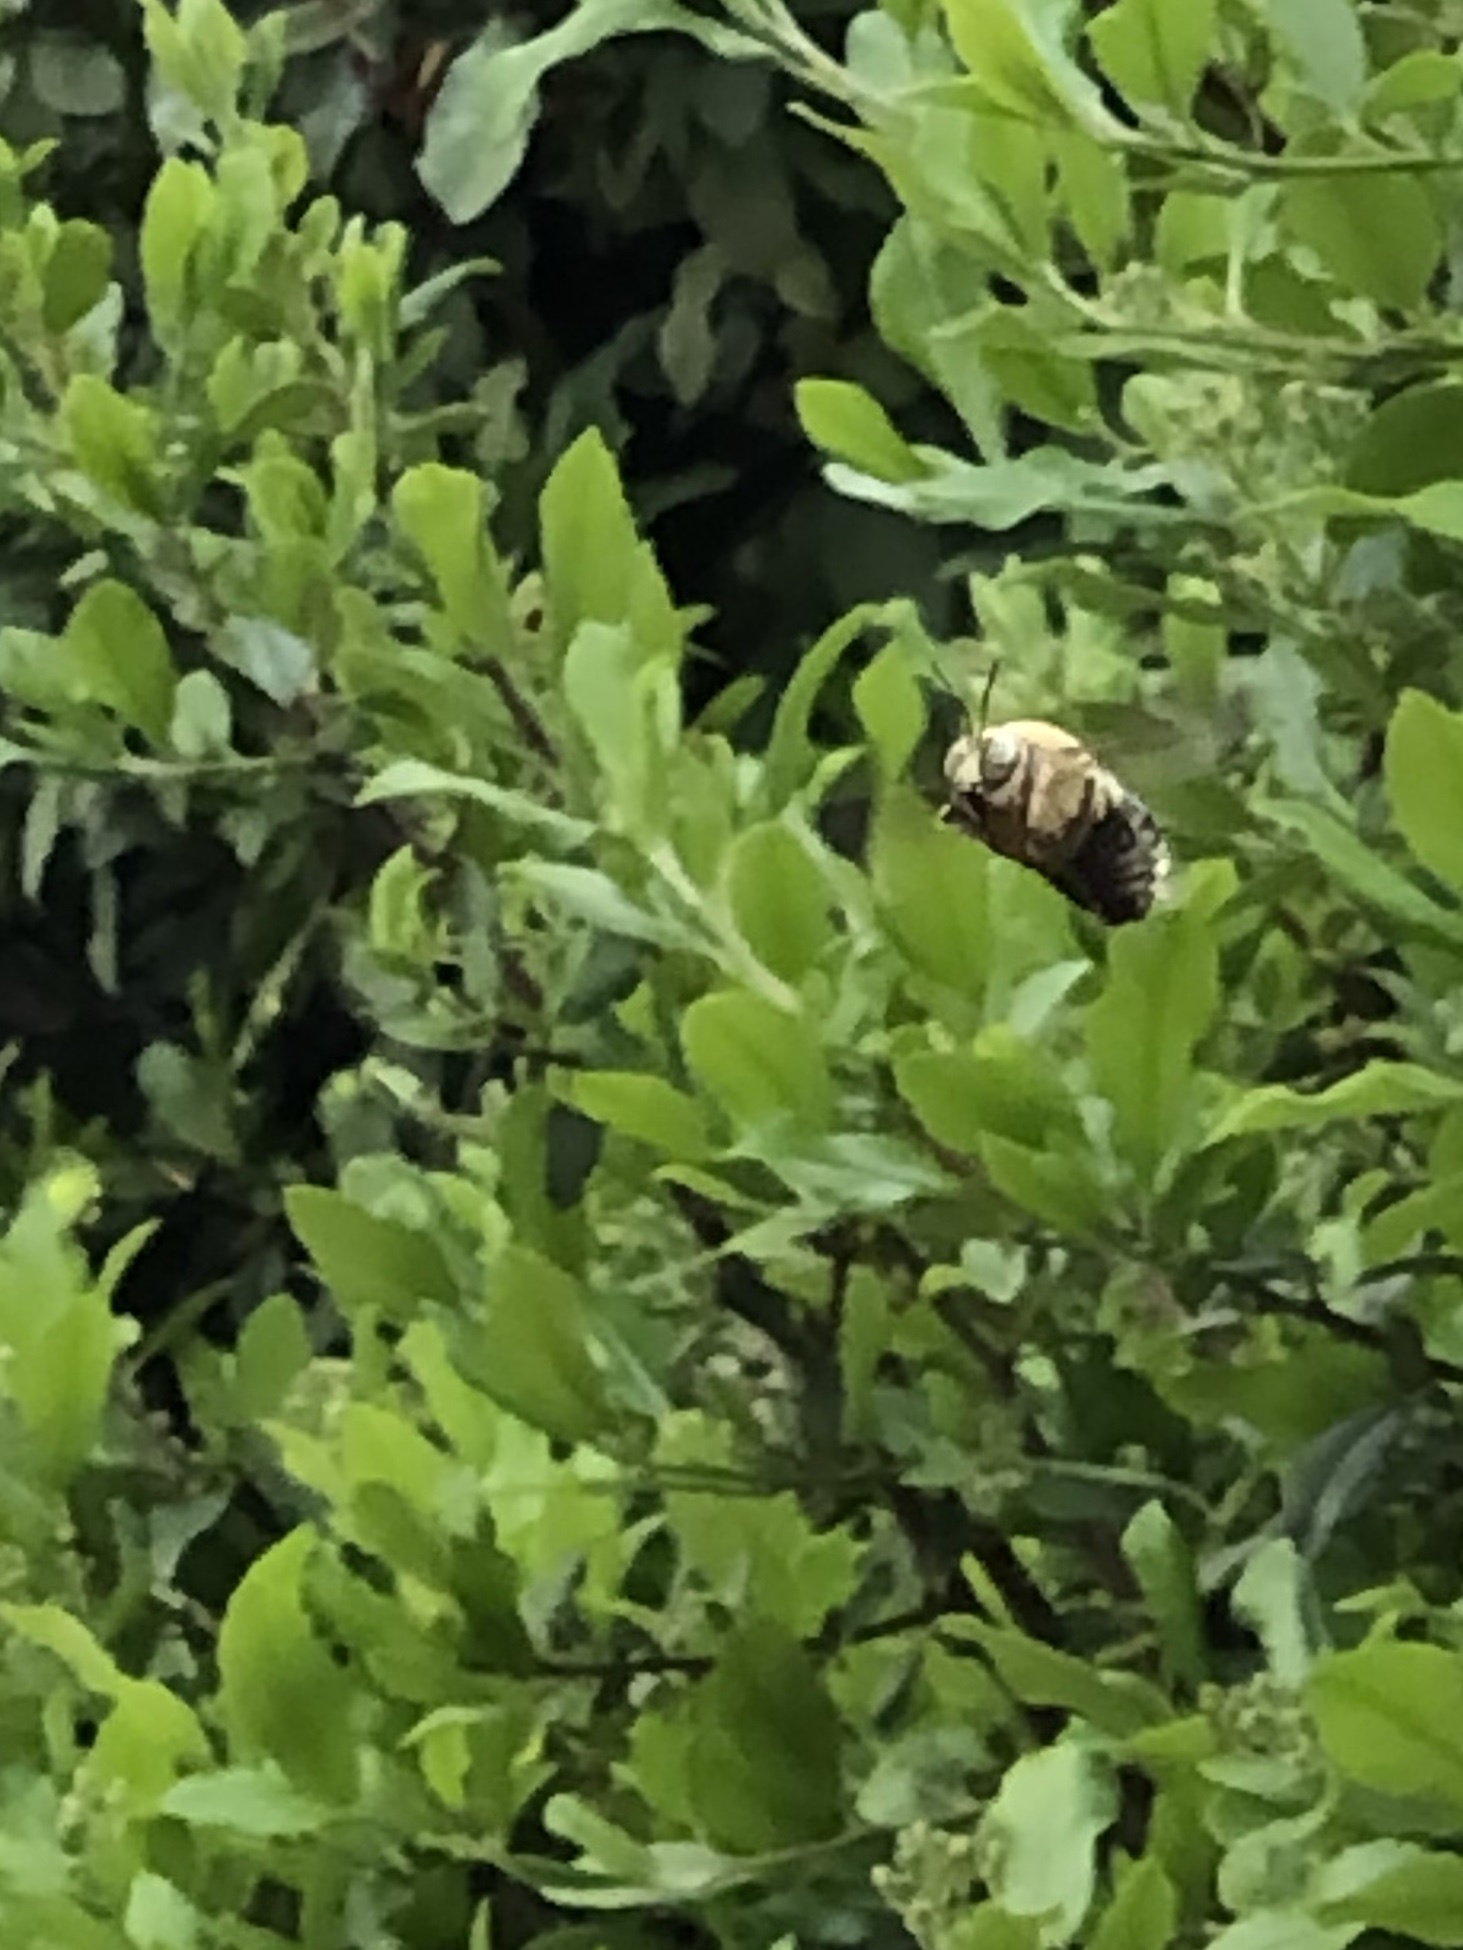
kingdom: Animalia
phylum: Arthropoda
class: Insecta
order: Hymenoptera
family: Apidae
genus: Xylocopa
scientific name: Xylocopa tabaniformis
